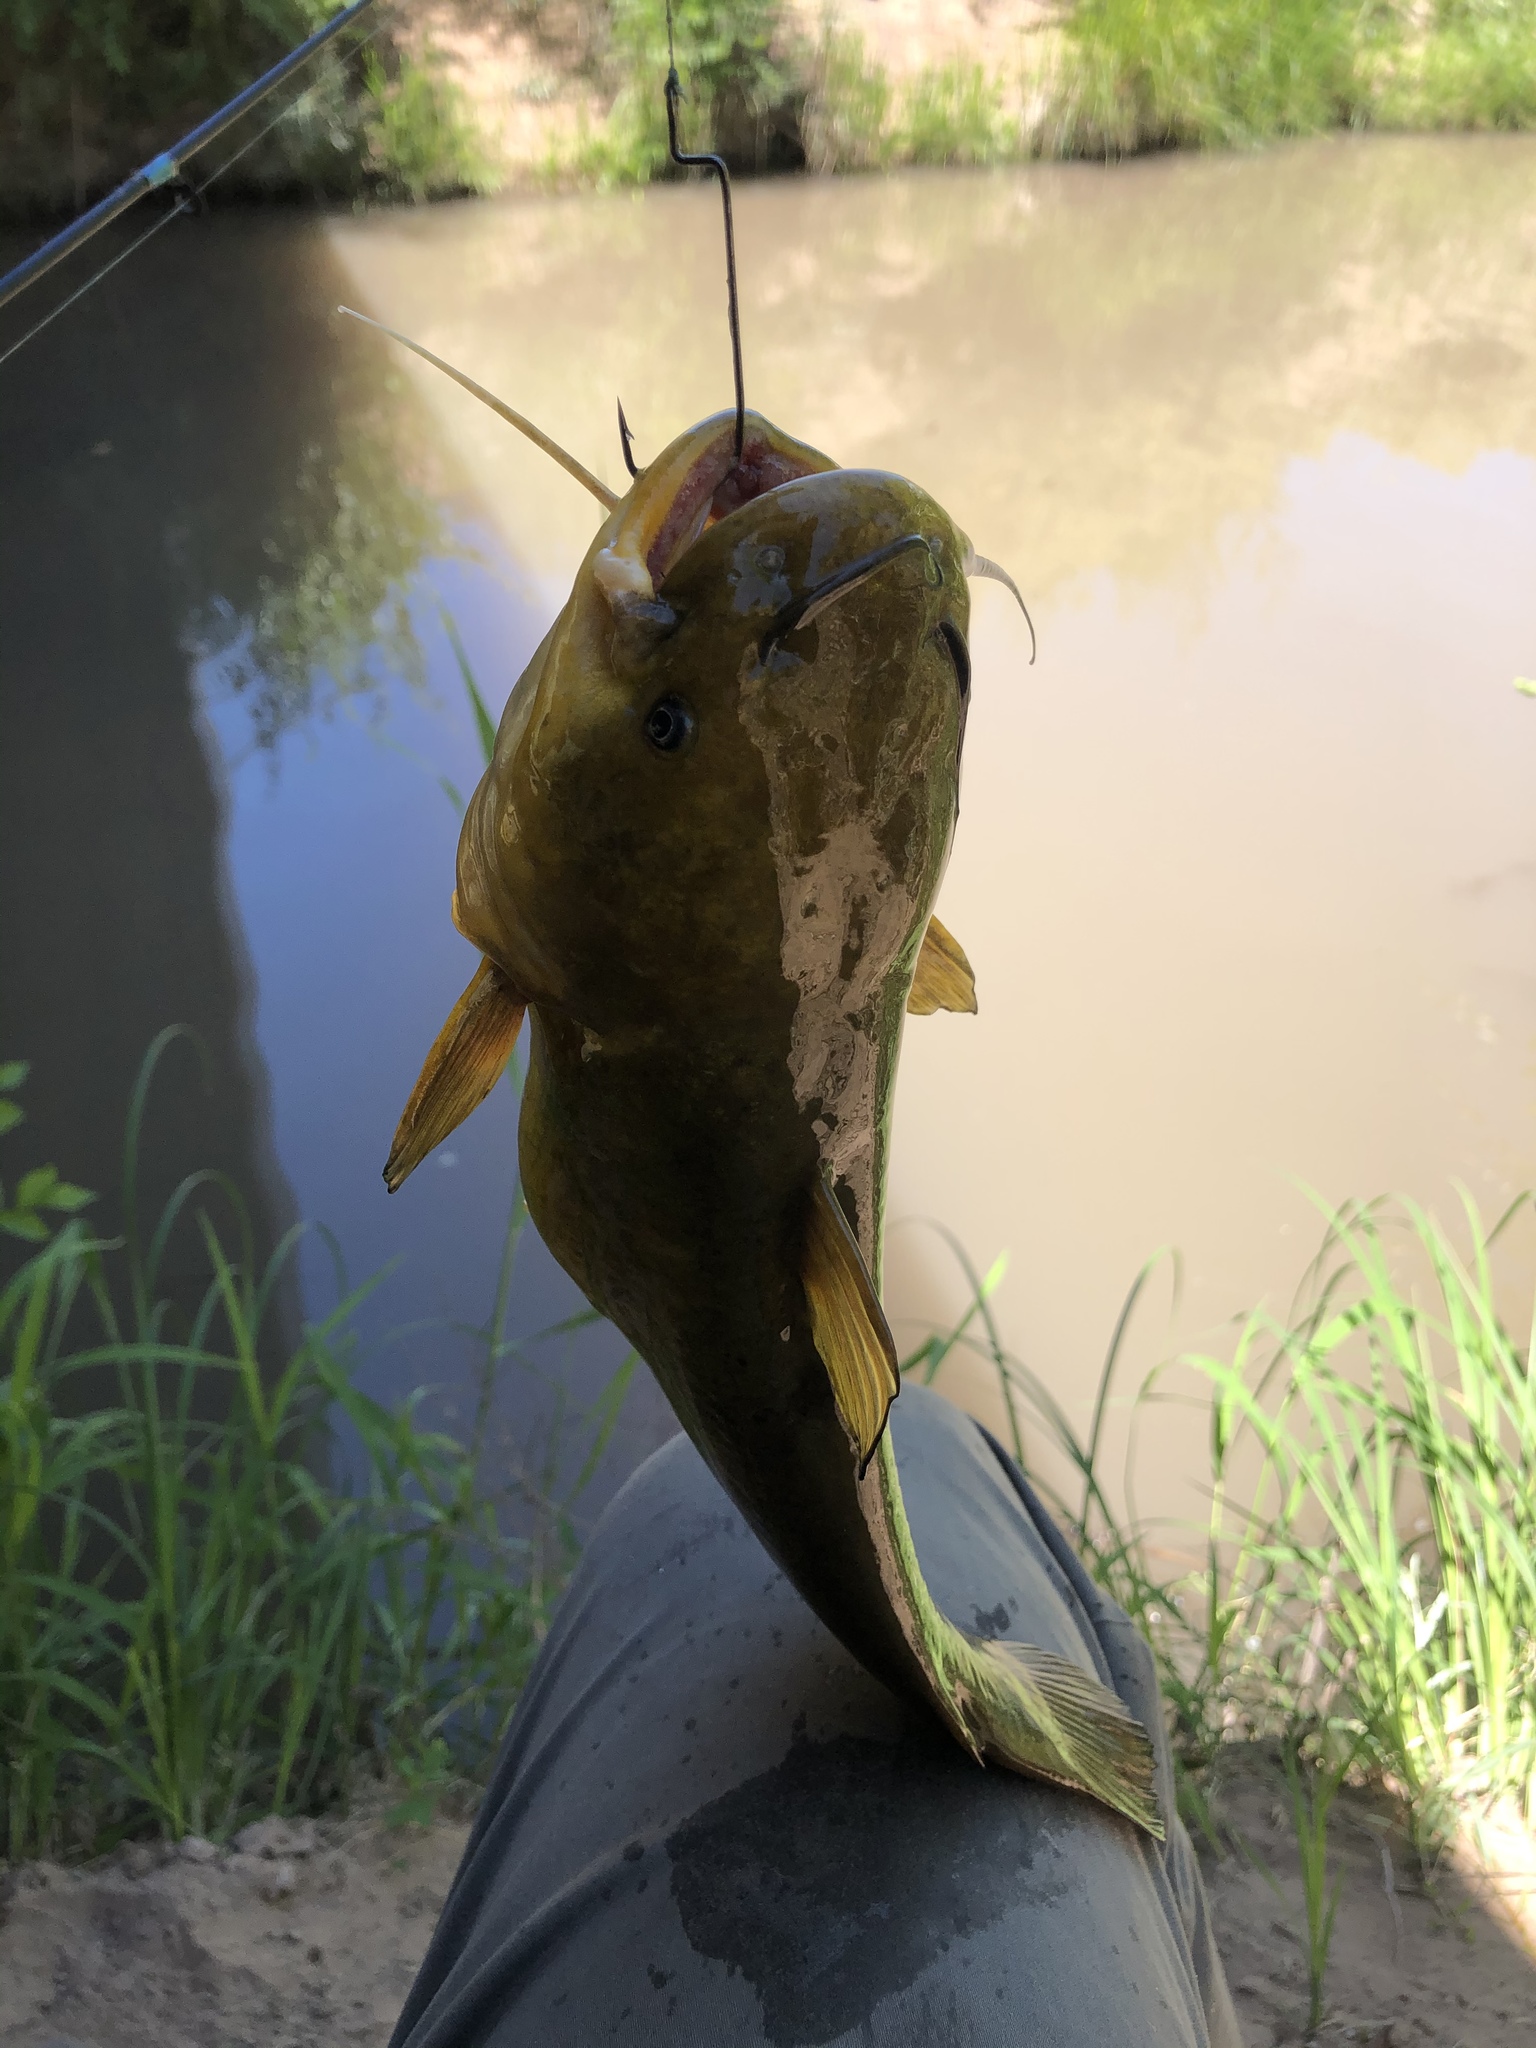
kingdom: Animalia
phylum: Chordata
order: Siluriformes
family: Ictaluridae
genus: Ameiurus
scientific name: Ameiurus natalis
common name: Yellow bullhead
